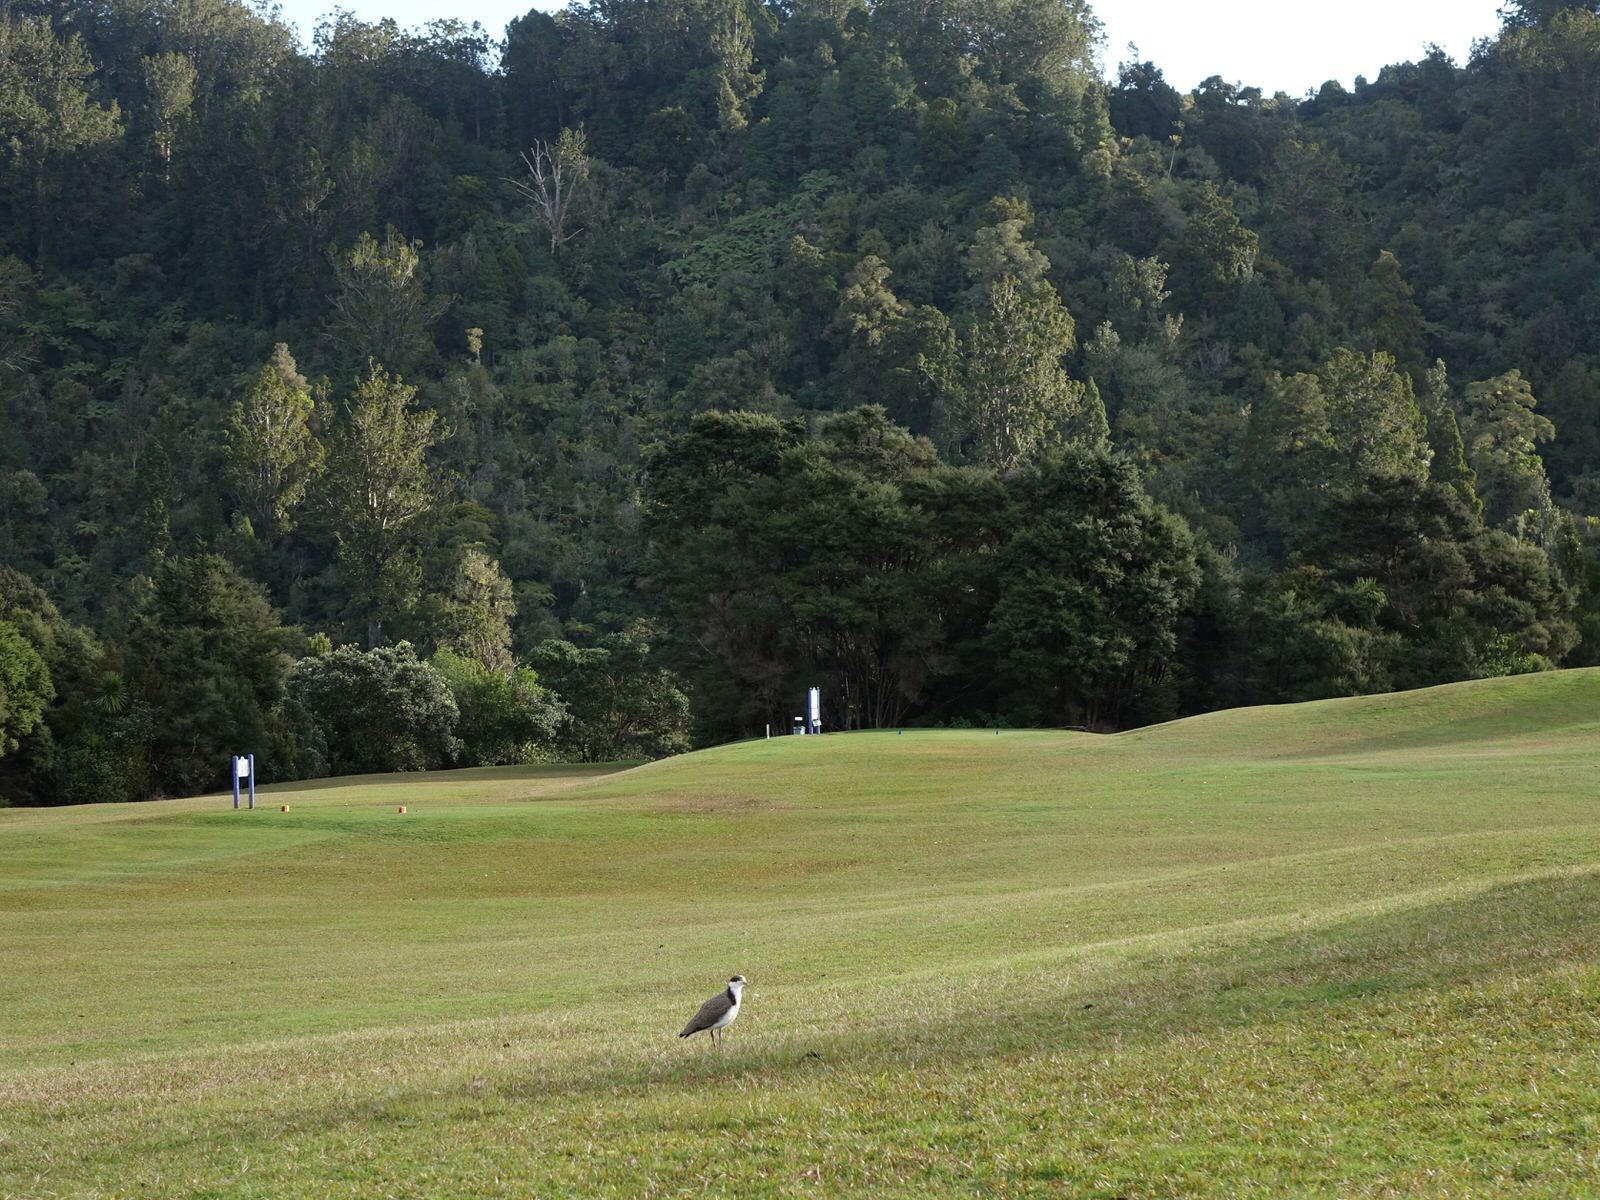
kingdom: Animalia
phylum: Chordata
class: Aves
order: Charadriiformes
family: Charadriidae
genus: Vanellus
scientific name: Vanellus miles
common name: Masked lapwing
